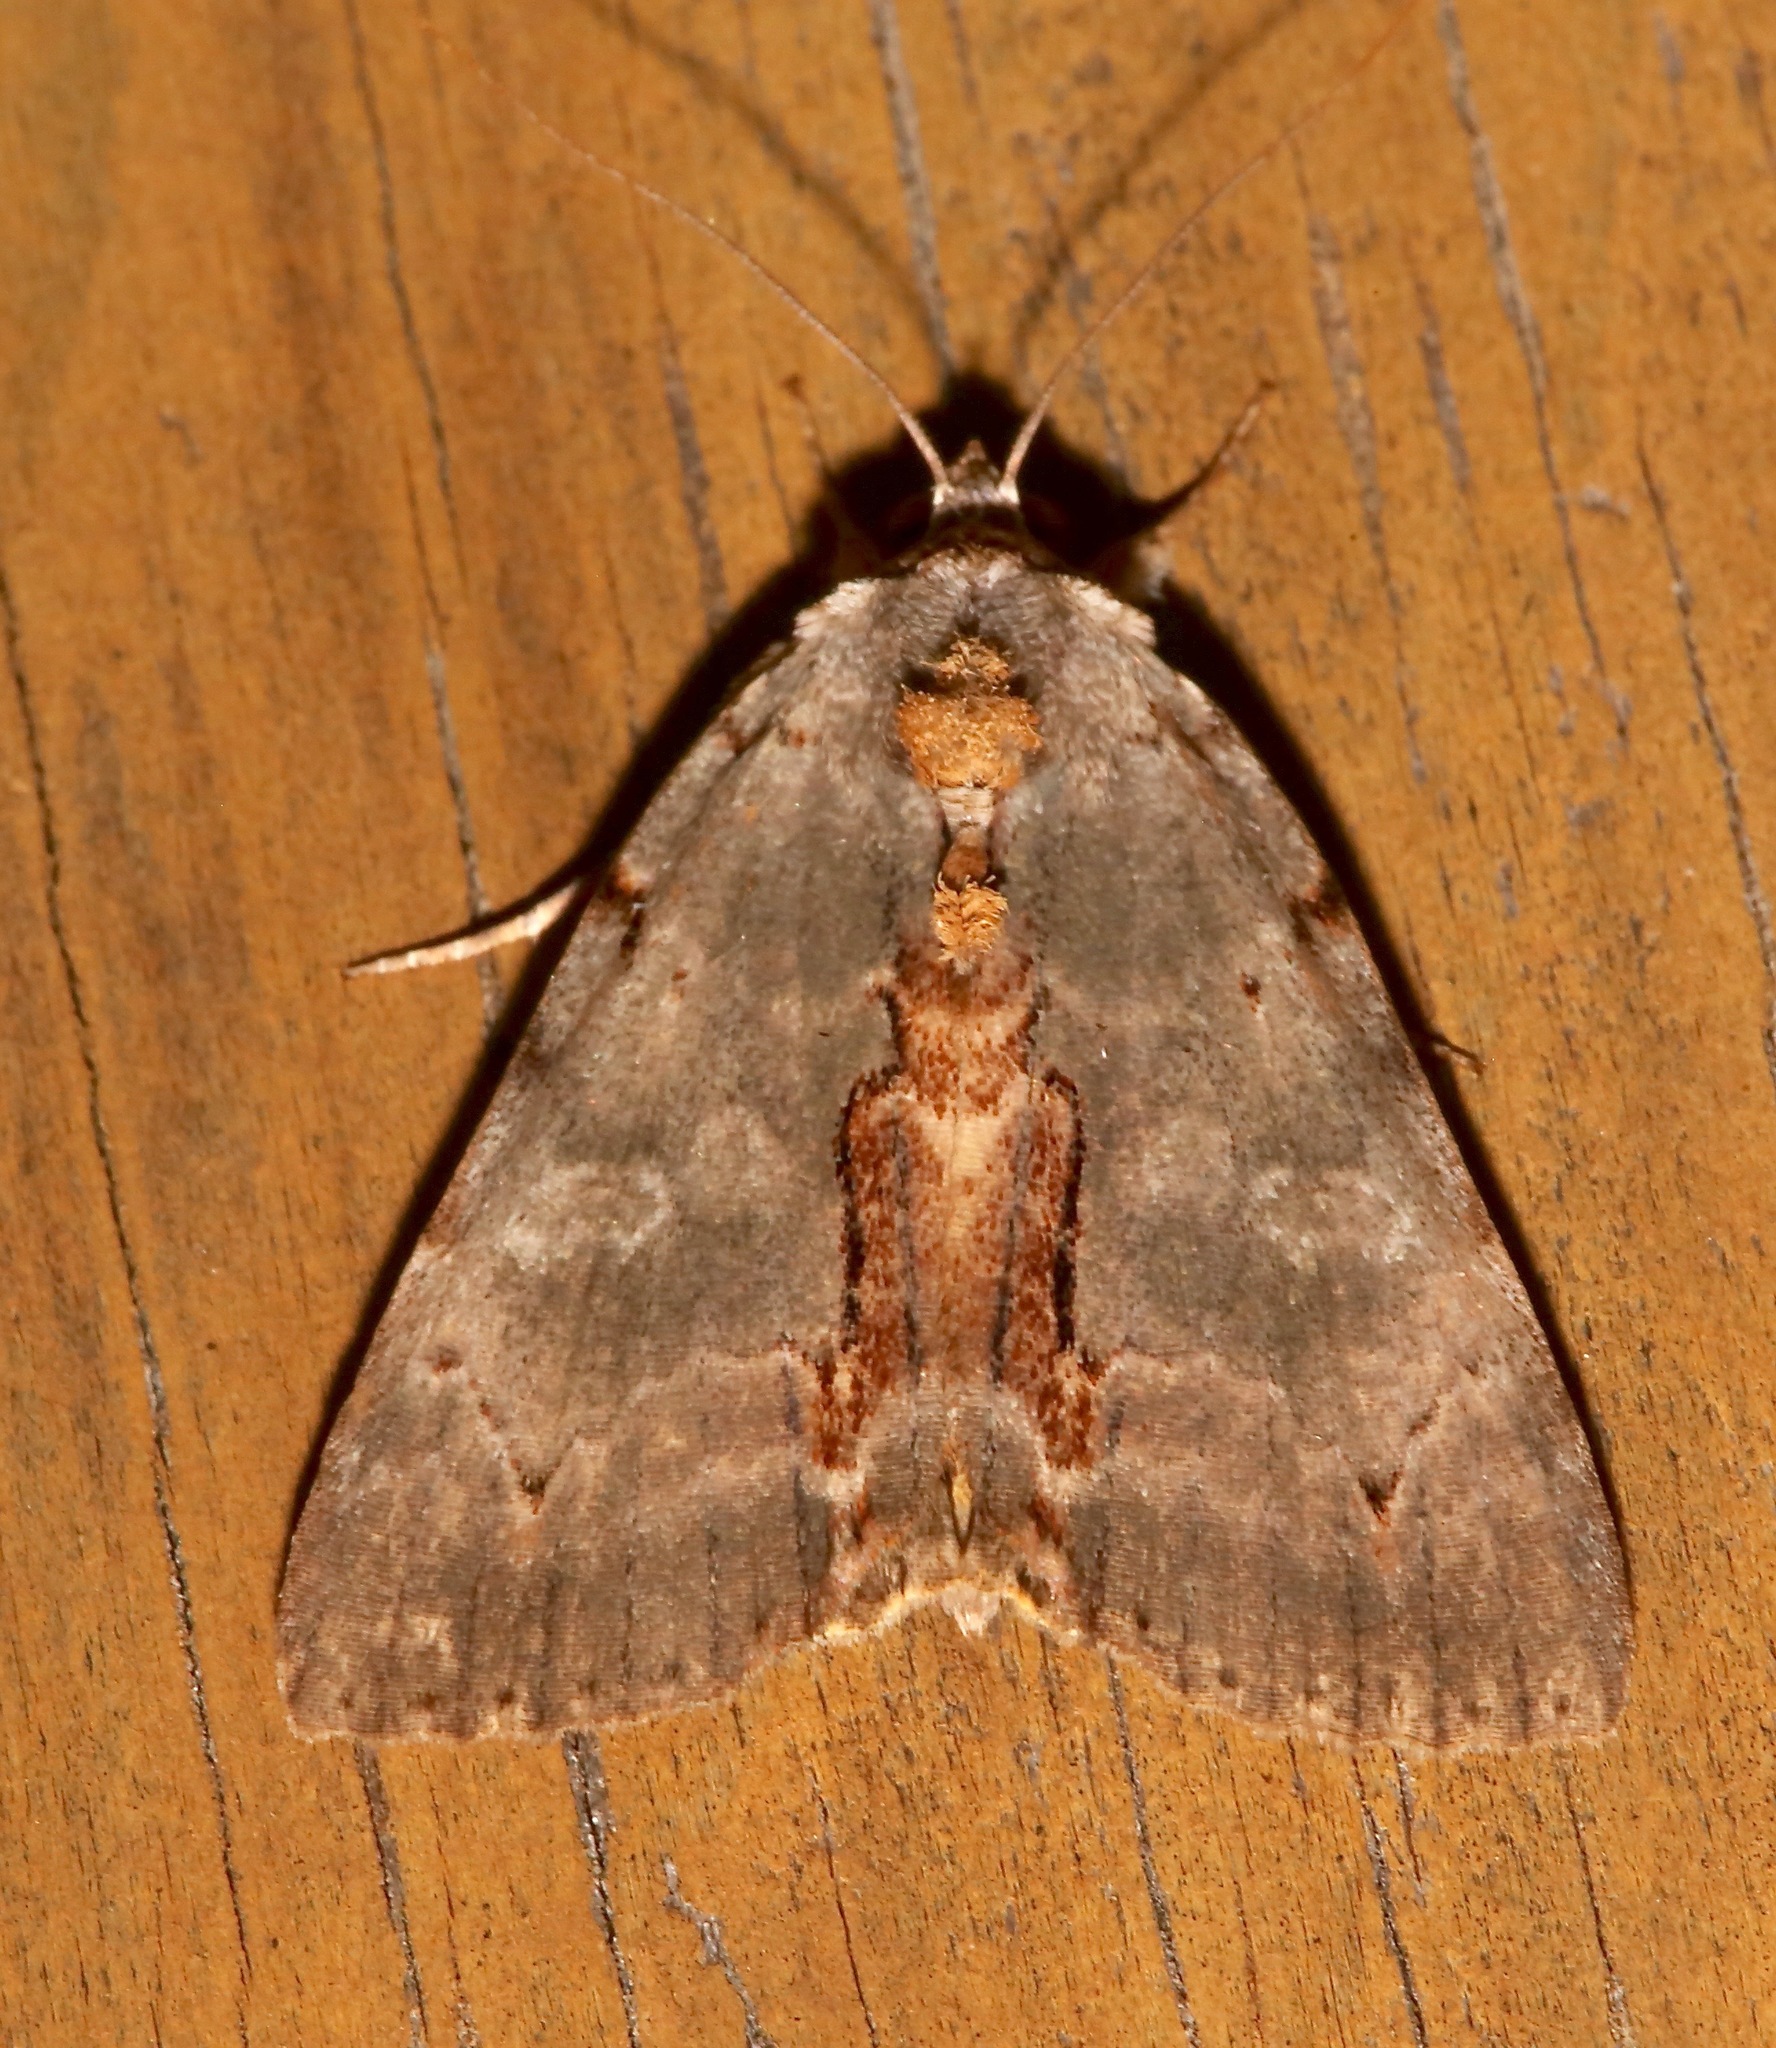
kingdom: Animalia
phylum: Arthropoda
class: Insecta
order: Lepidoptera
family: Erebidae
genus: Catocala
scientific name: Catocala grynea
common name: Woody underwing
